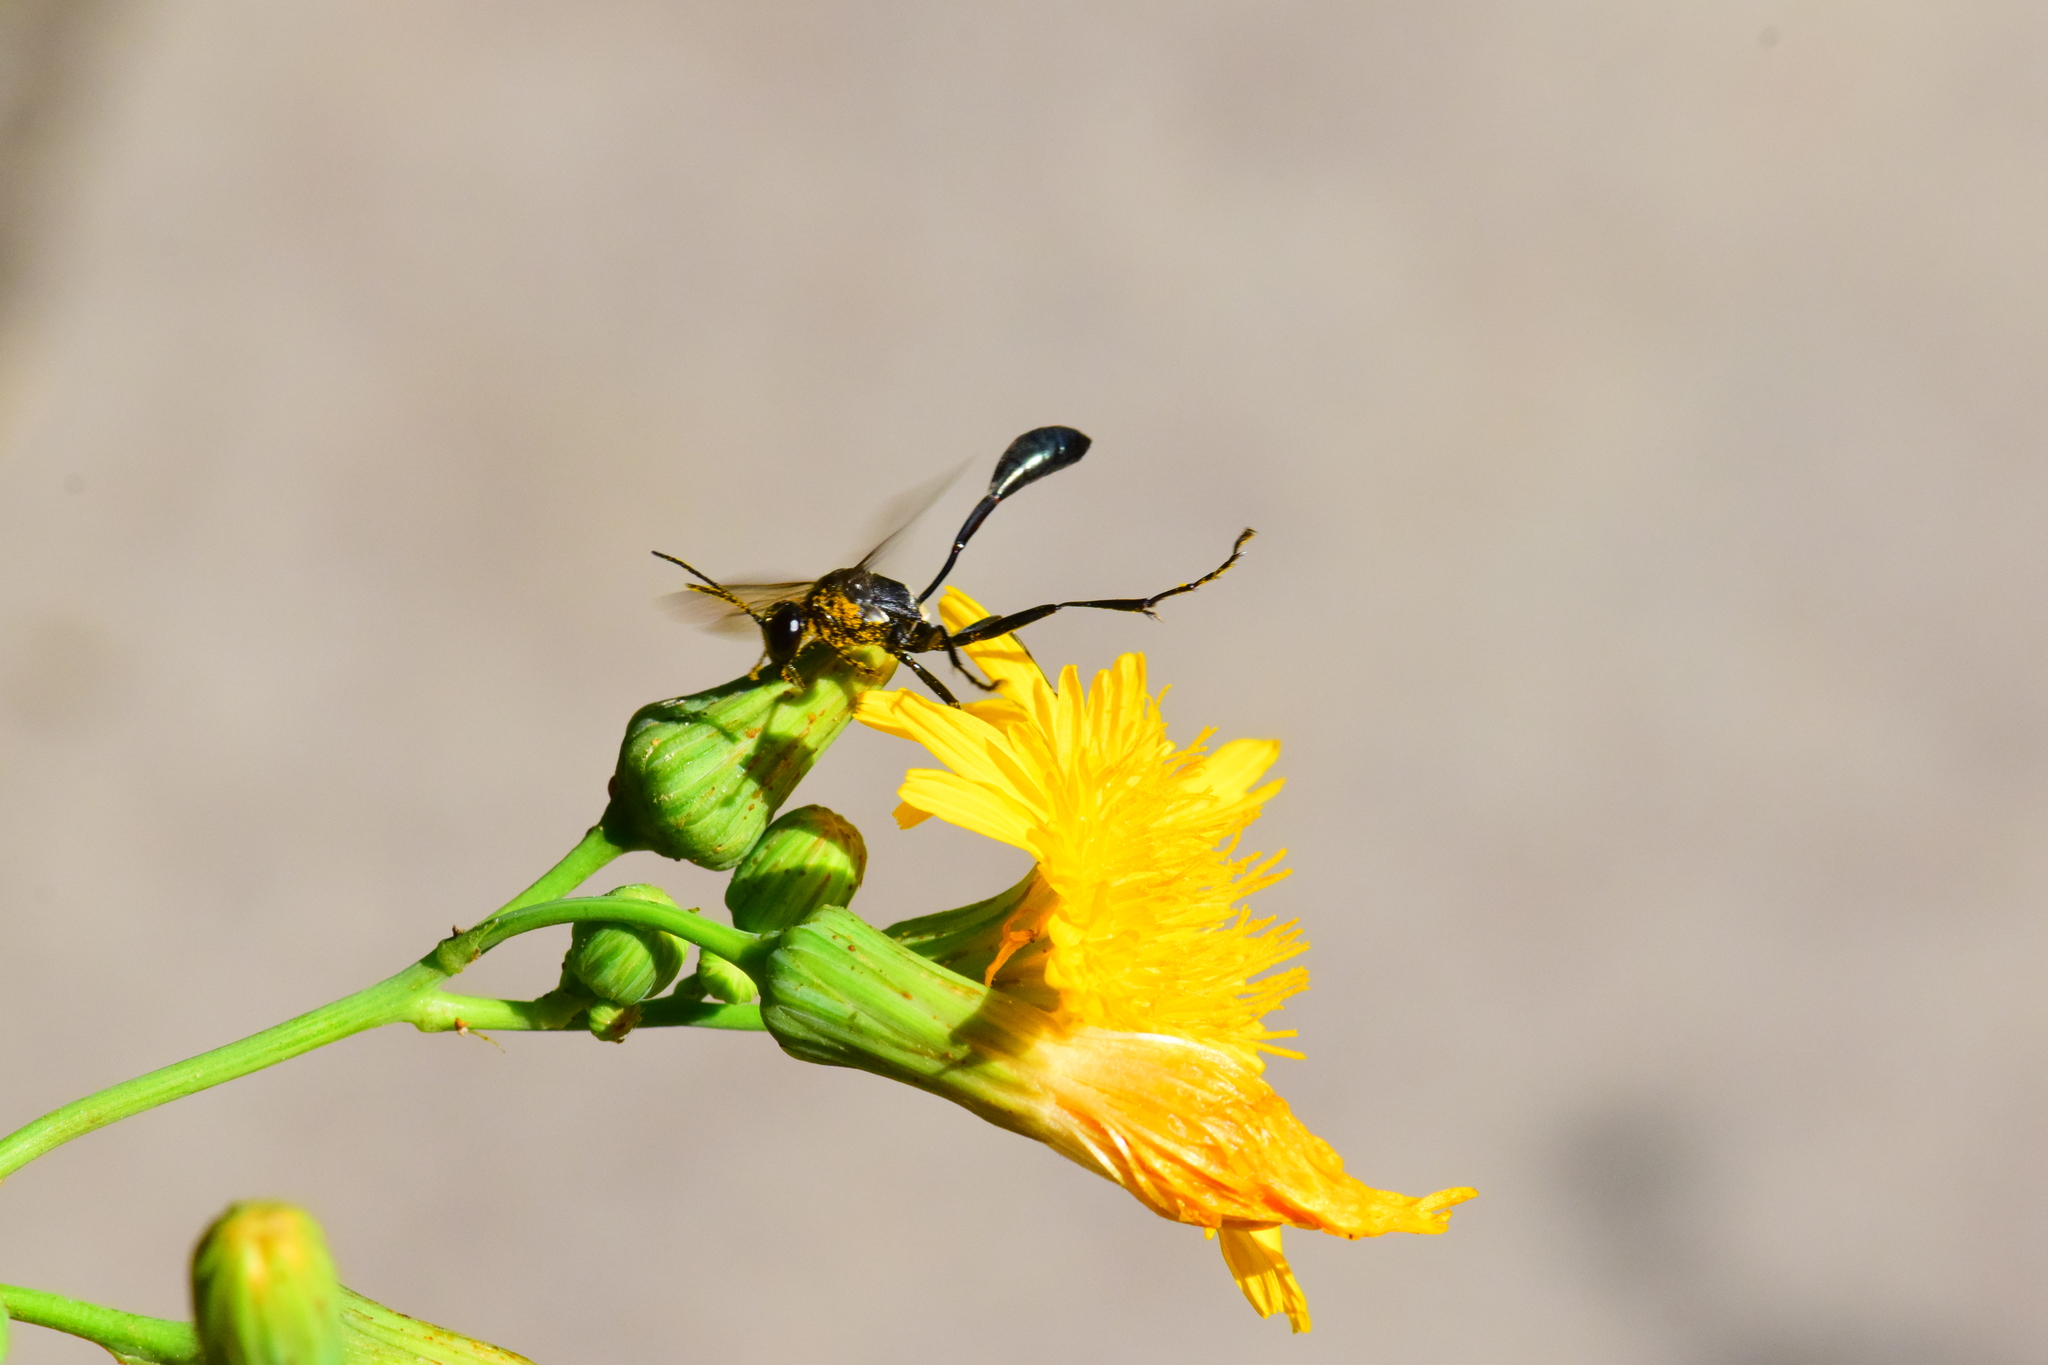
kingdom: Animalia
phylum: Arthropoda
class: Insecta
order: Hymenoptera
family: Sphecidae
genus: Eremnophila
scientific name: Eremnophila aureonotata
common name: Gold-marked thread-waisted wasp
